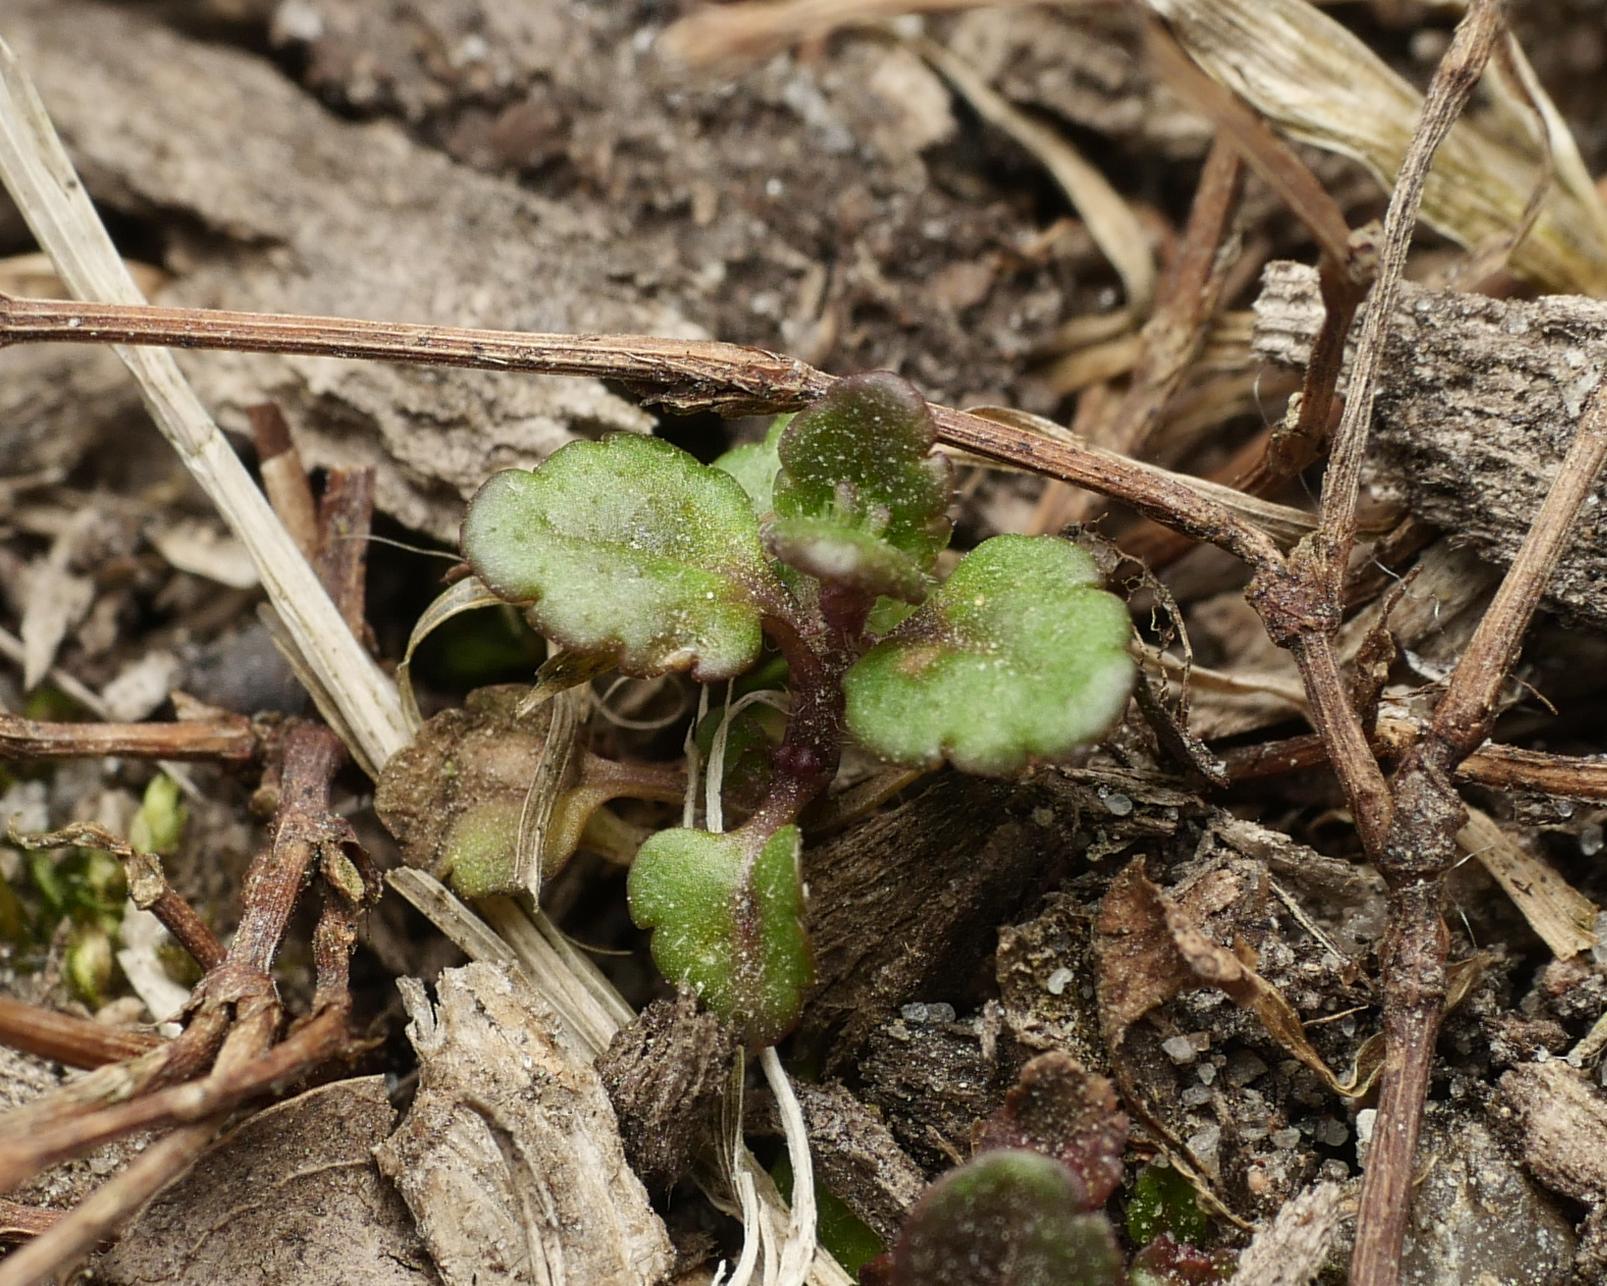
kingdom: Plantae
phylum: Tracheophyta
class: Magnoliopsida
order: Lamiales
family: Plantaginaceae
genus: Veronica
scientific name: Veronica arvensis
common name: Corn speedwell
